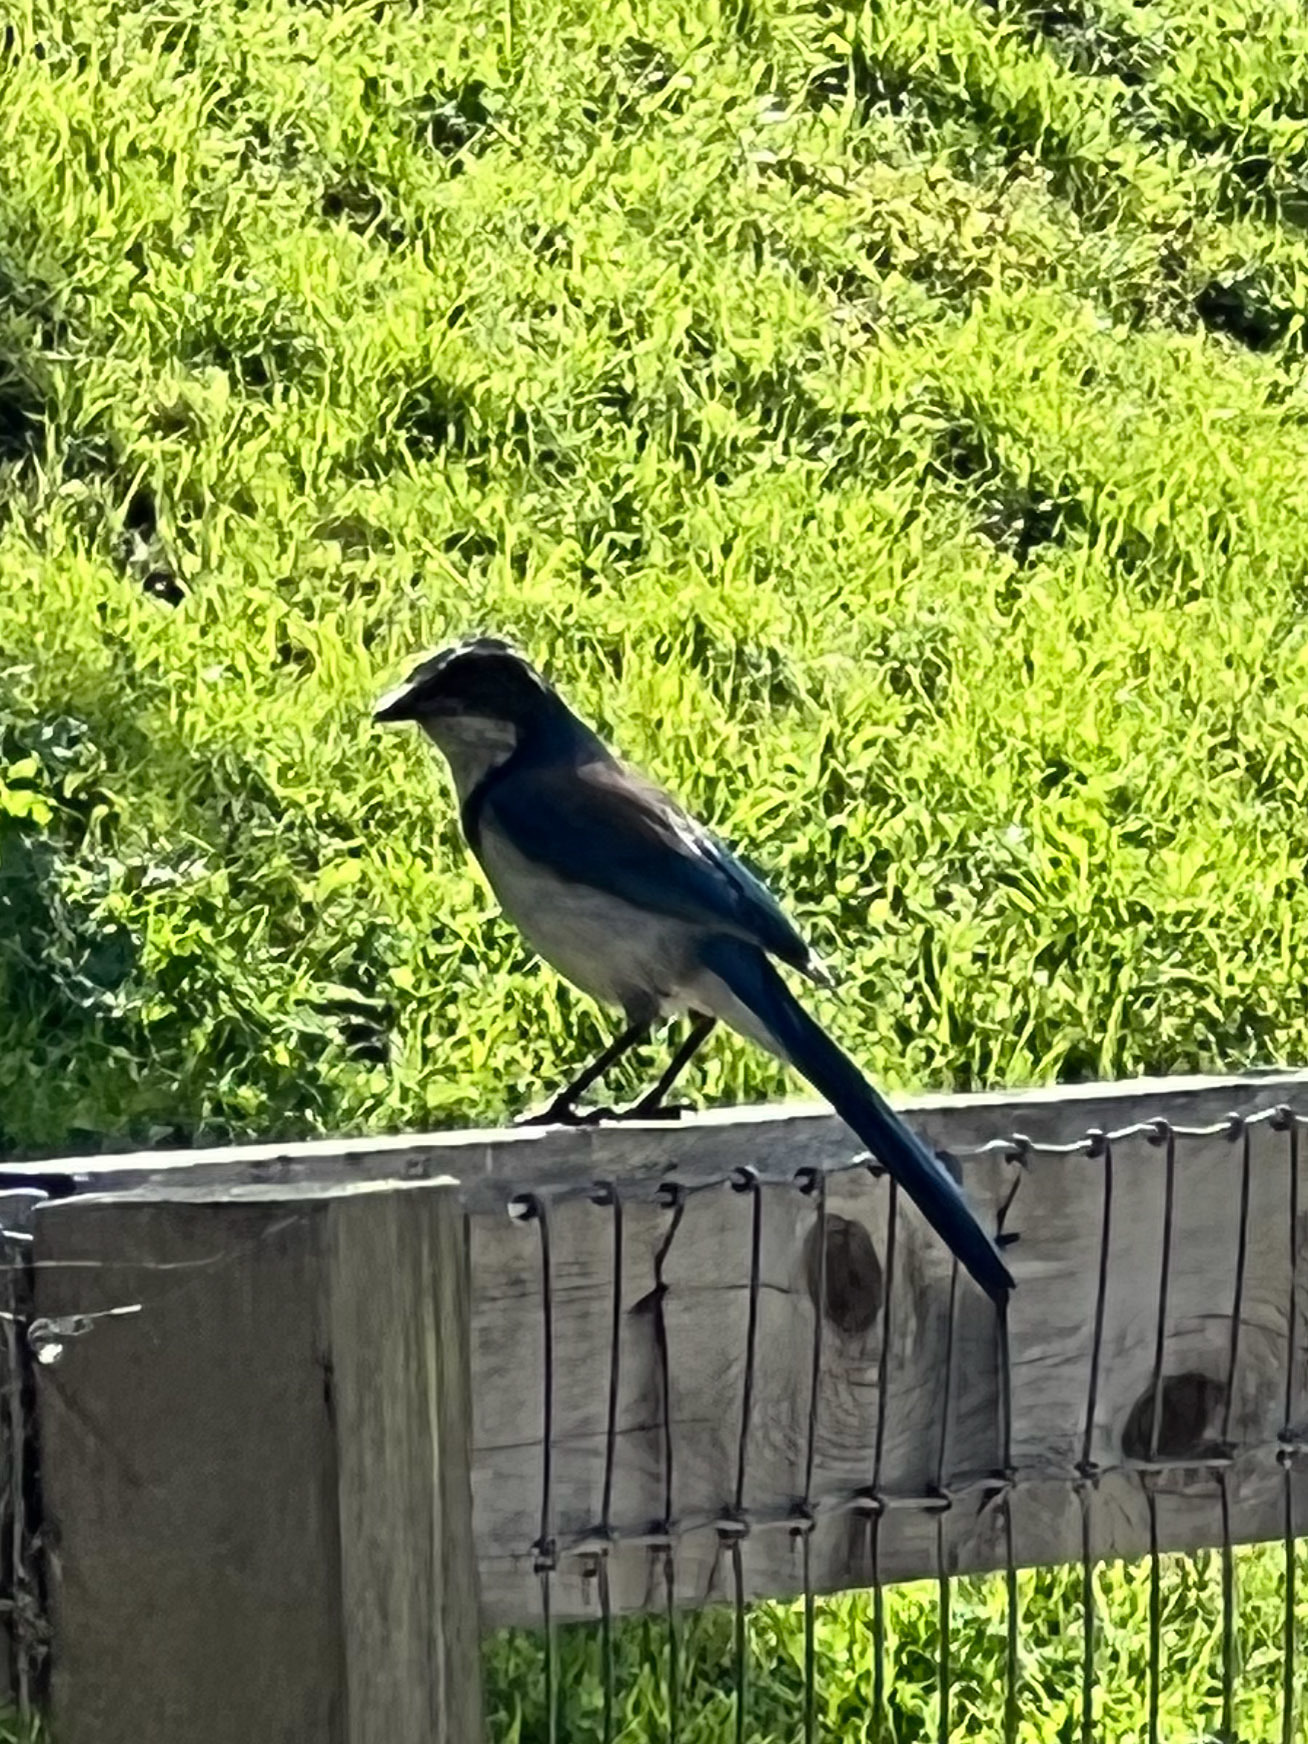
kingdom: Animalia
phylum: Chordata
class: Aves
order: Passeriformes
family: Corvidae
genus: Aphelocoma
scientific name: Aphelocoma californica
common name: California scrub-jay
